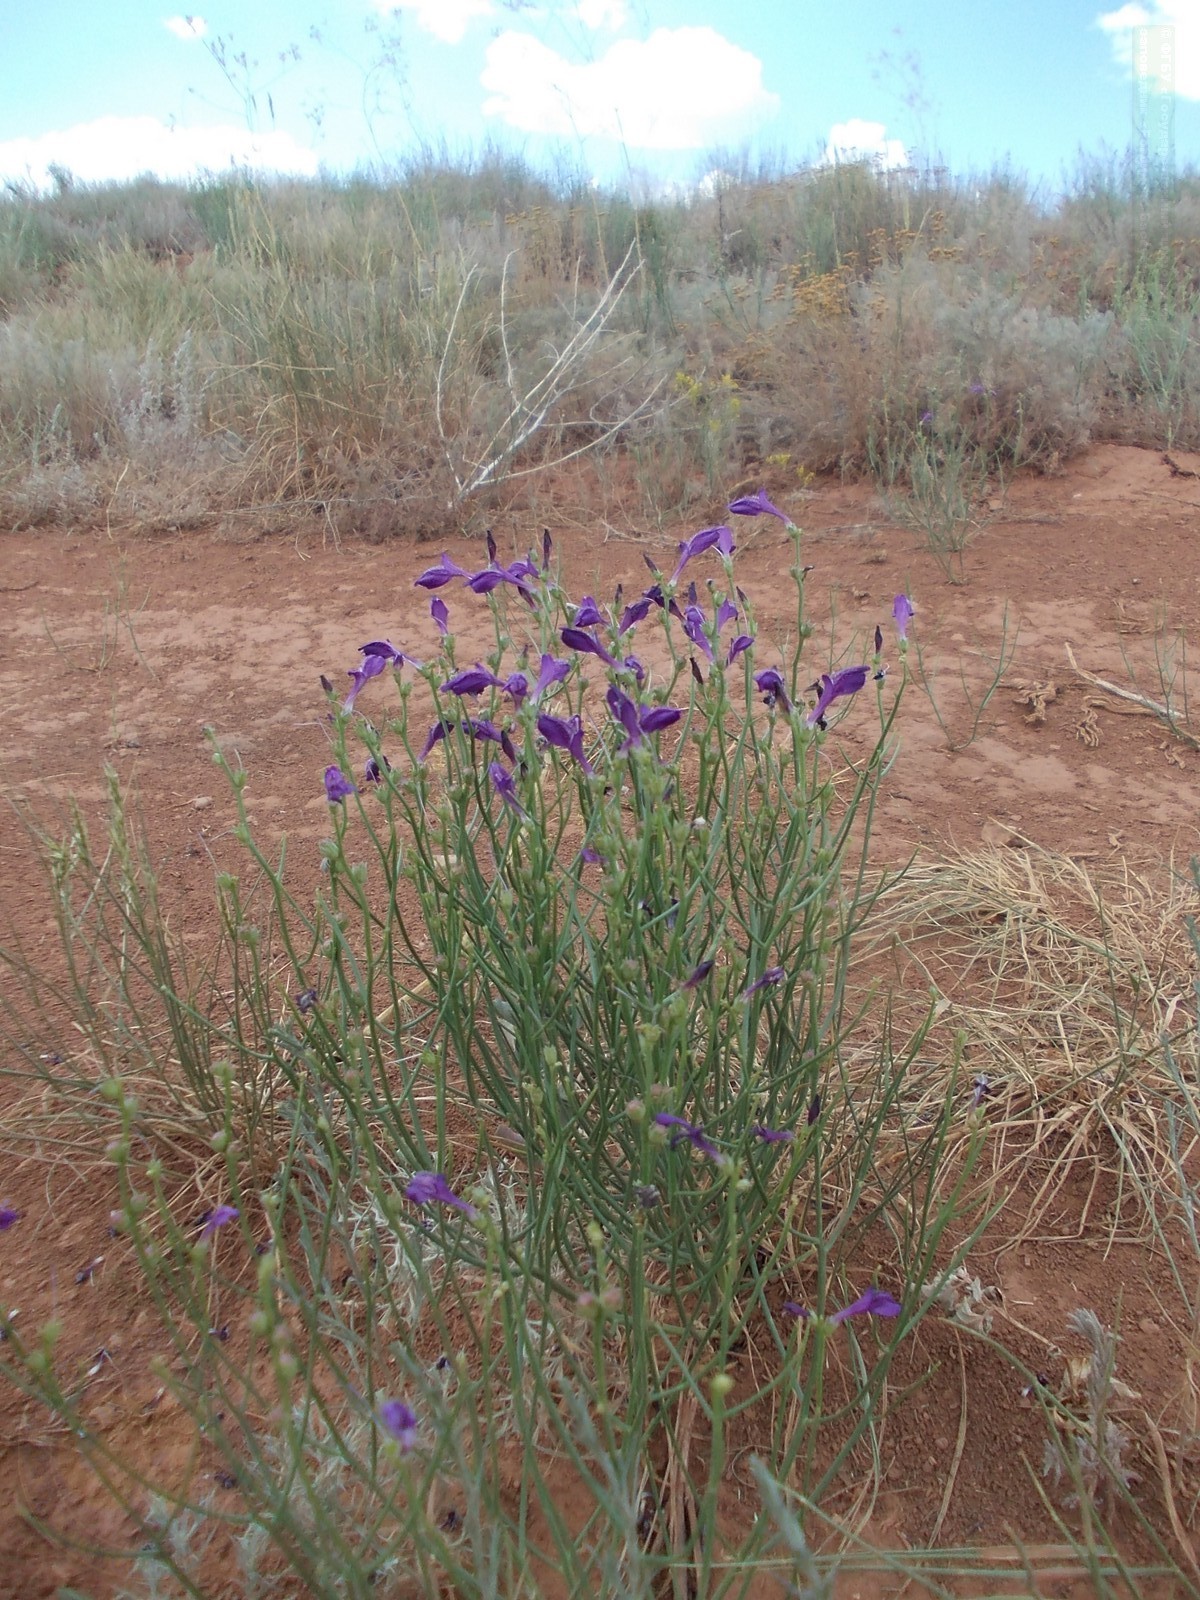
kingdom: Plantae
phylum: Tracheophyta
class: Magnoliopsida
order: Lamiales
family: Mazaceae
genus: Dodartia
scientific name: Dodartia orientalis
